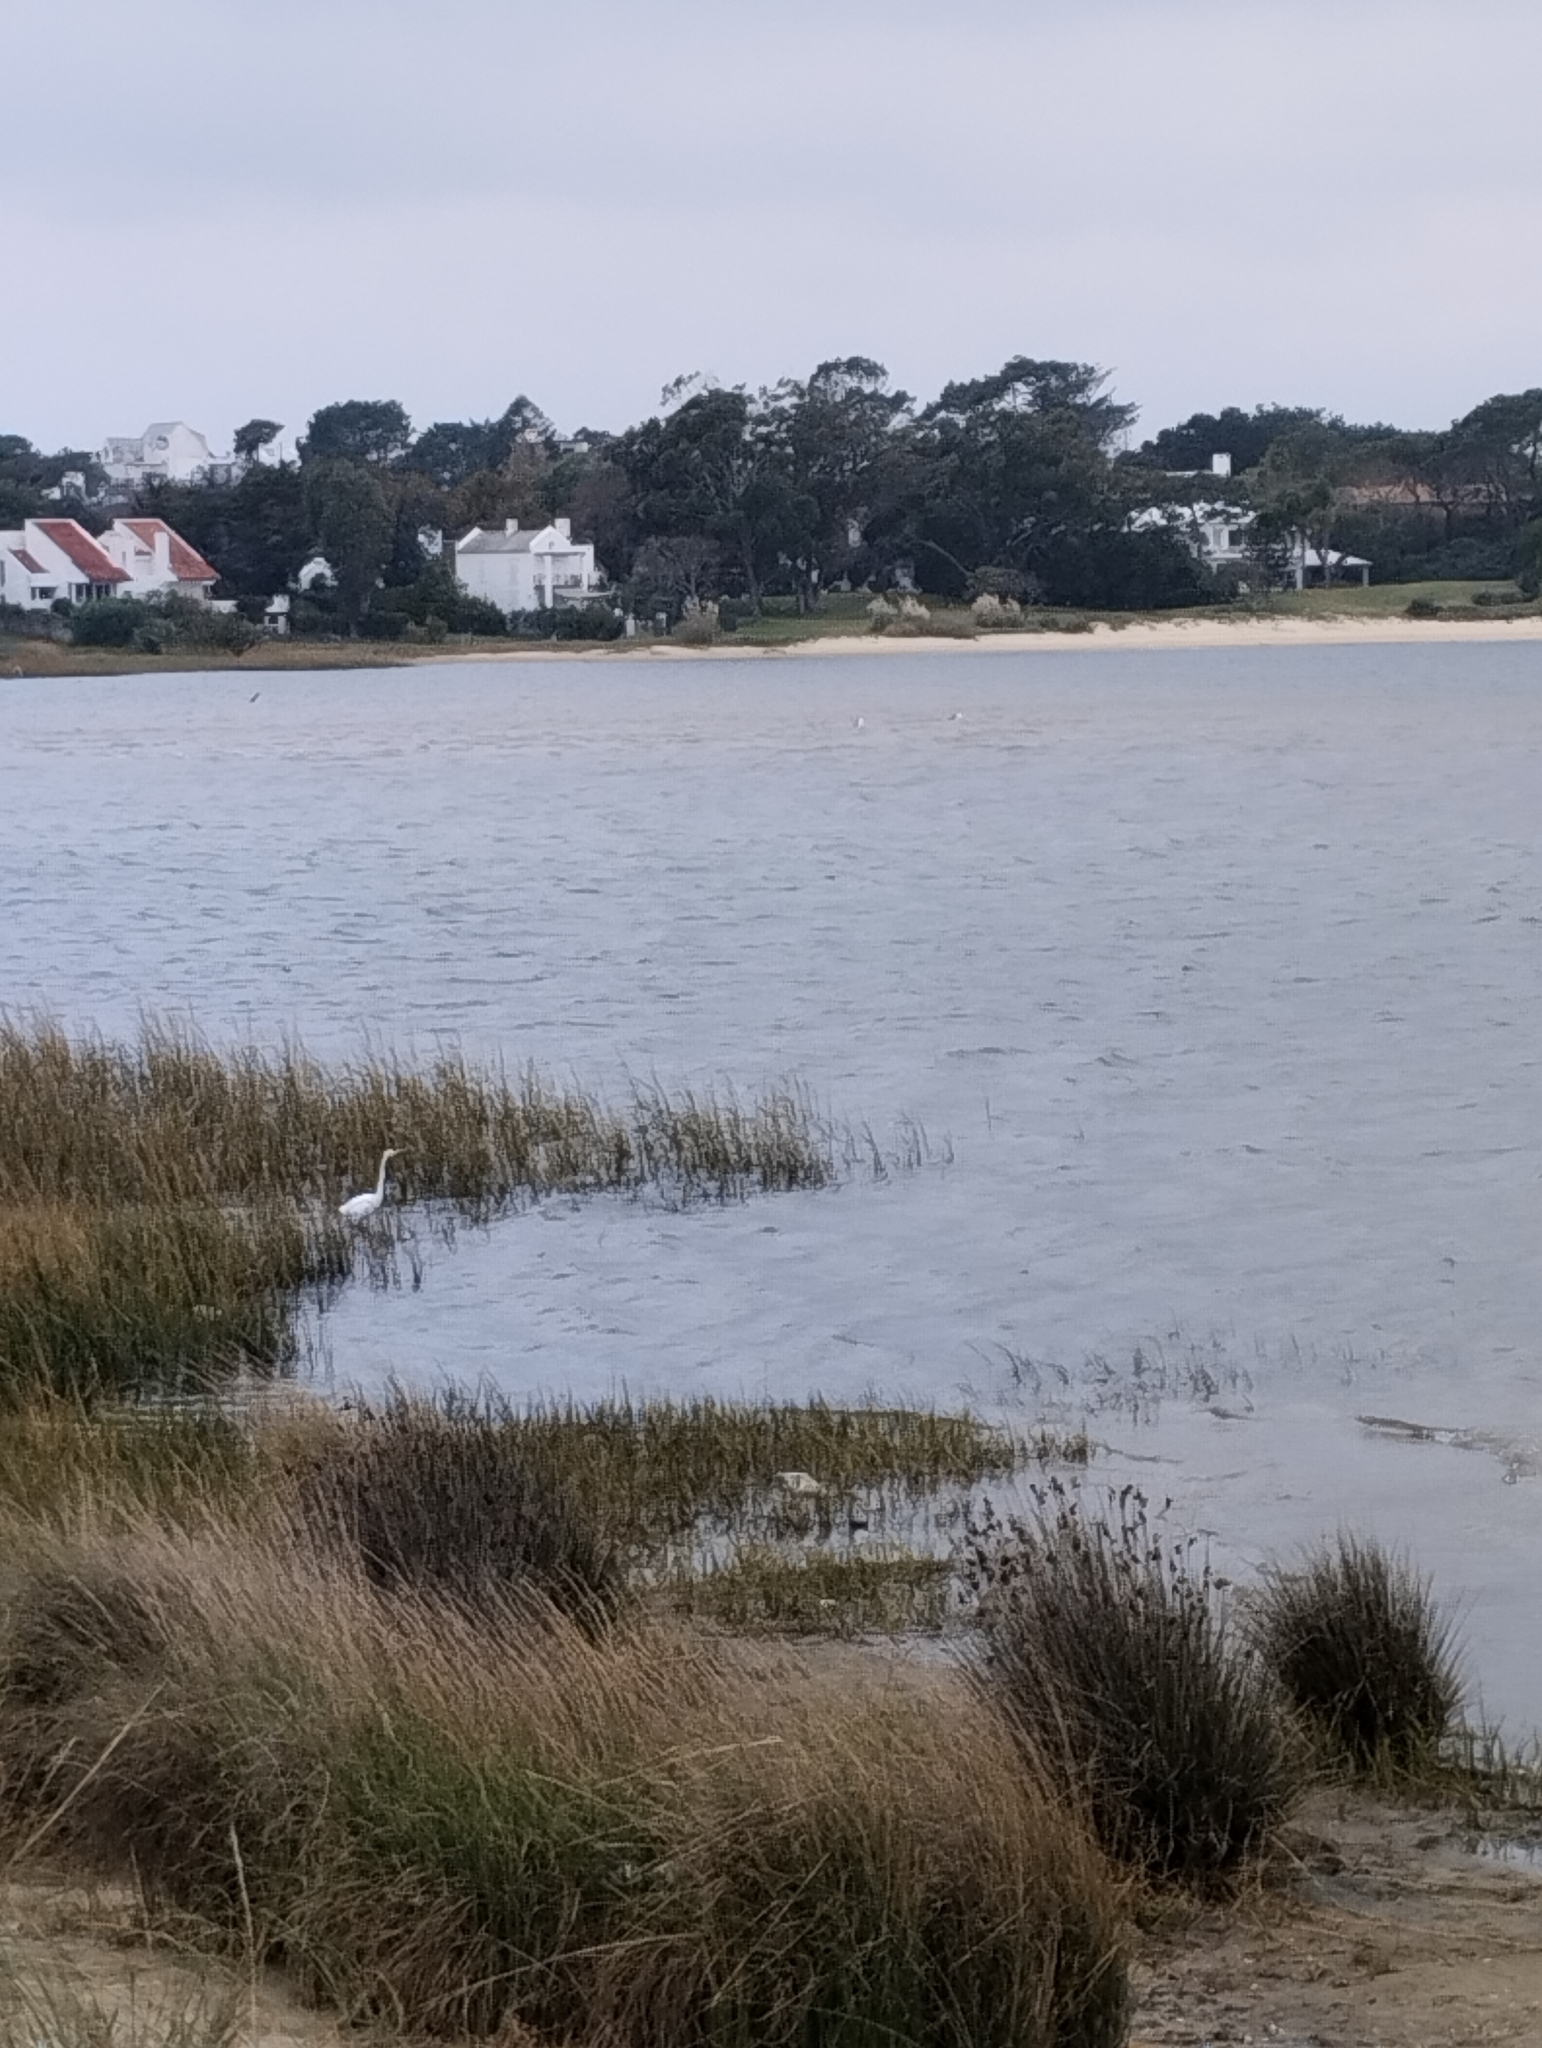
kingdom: Animalia
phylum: Chordata
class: Aves
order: Pelecaniformes
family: Ardeidae
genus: Ardea
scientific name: Ardea alba
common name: Great egret
